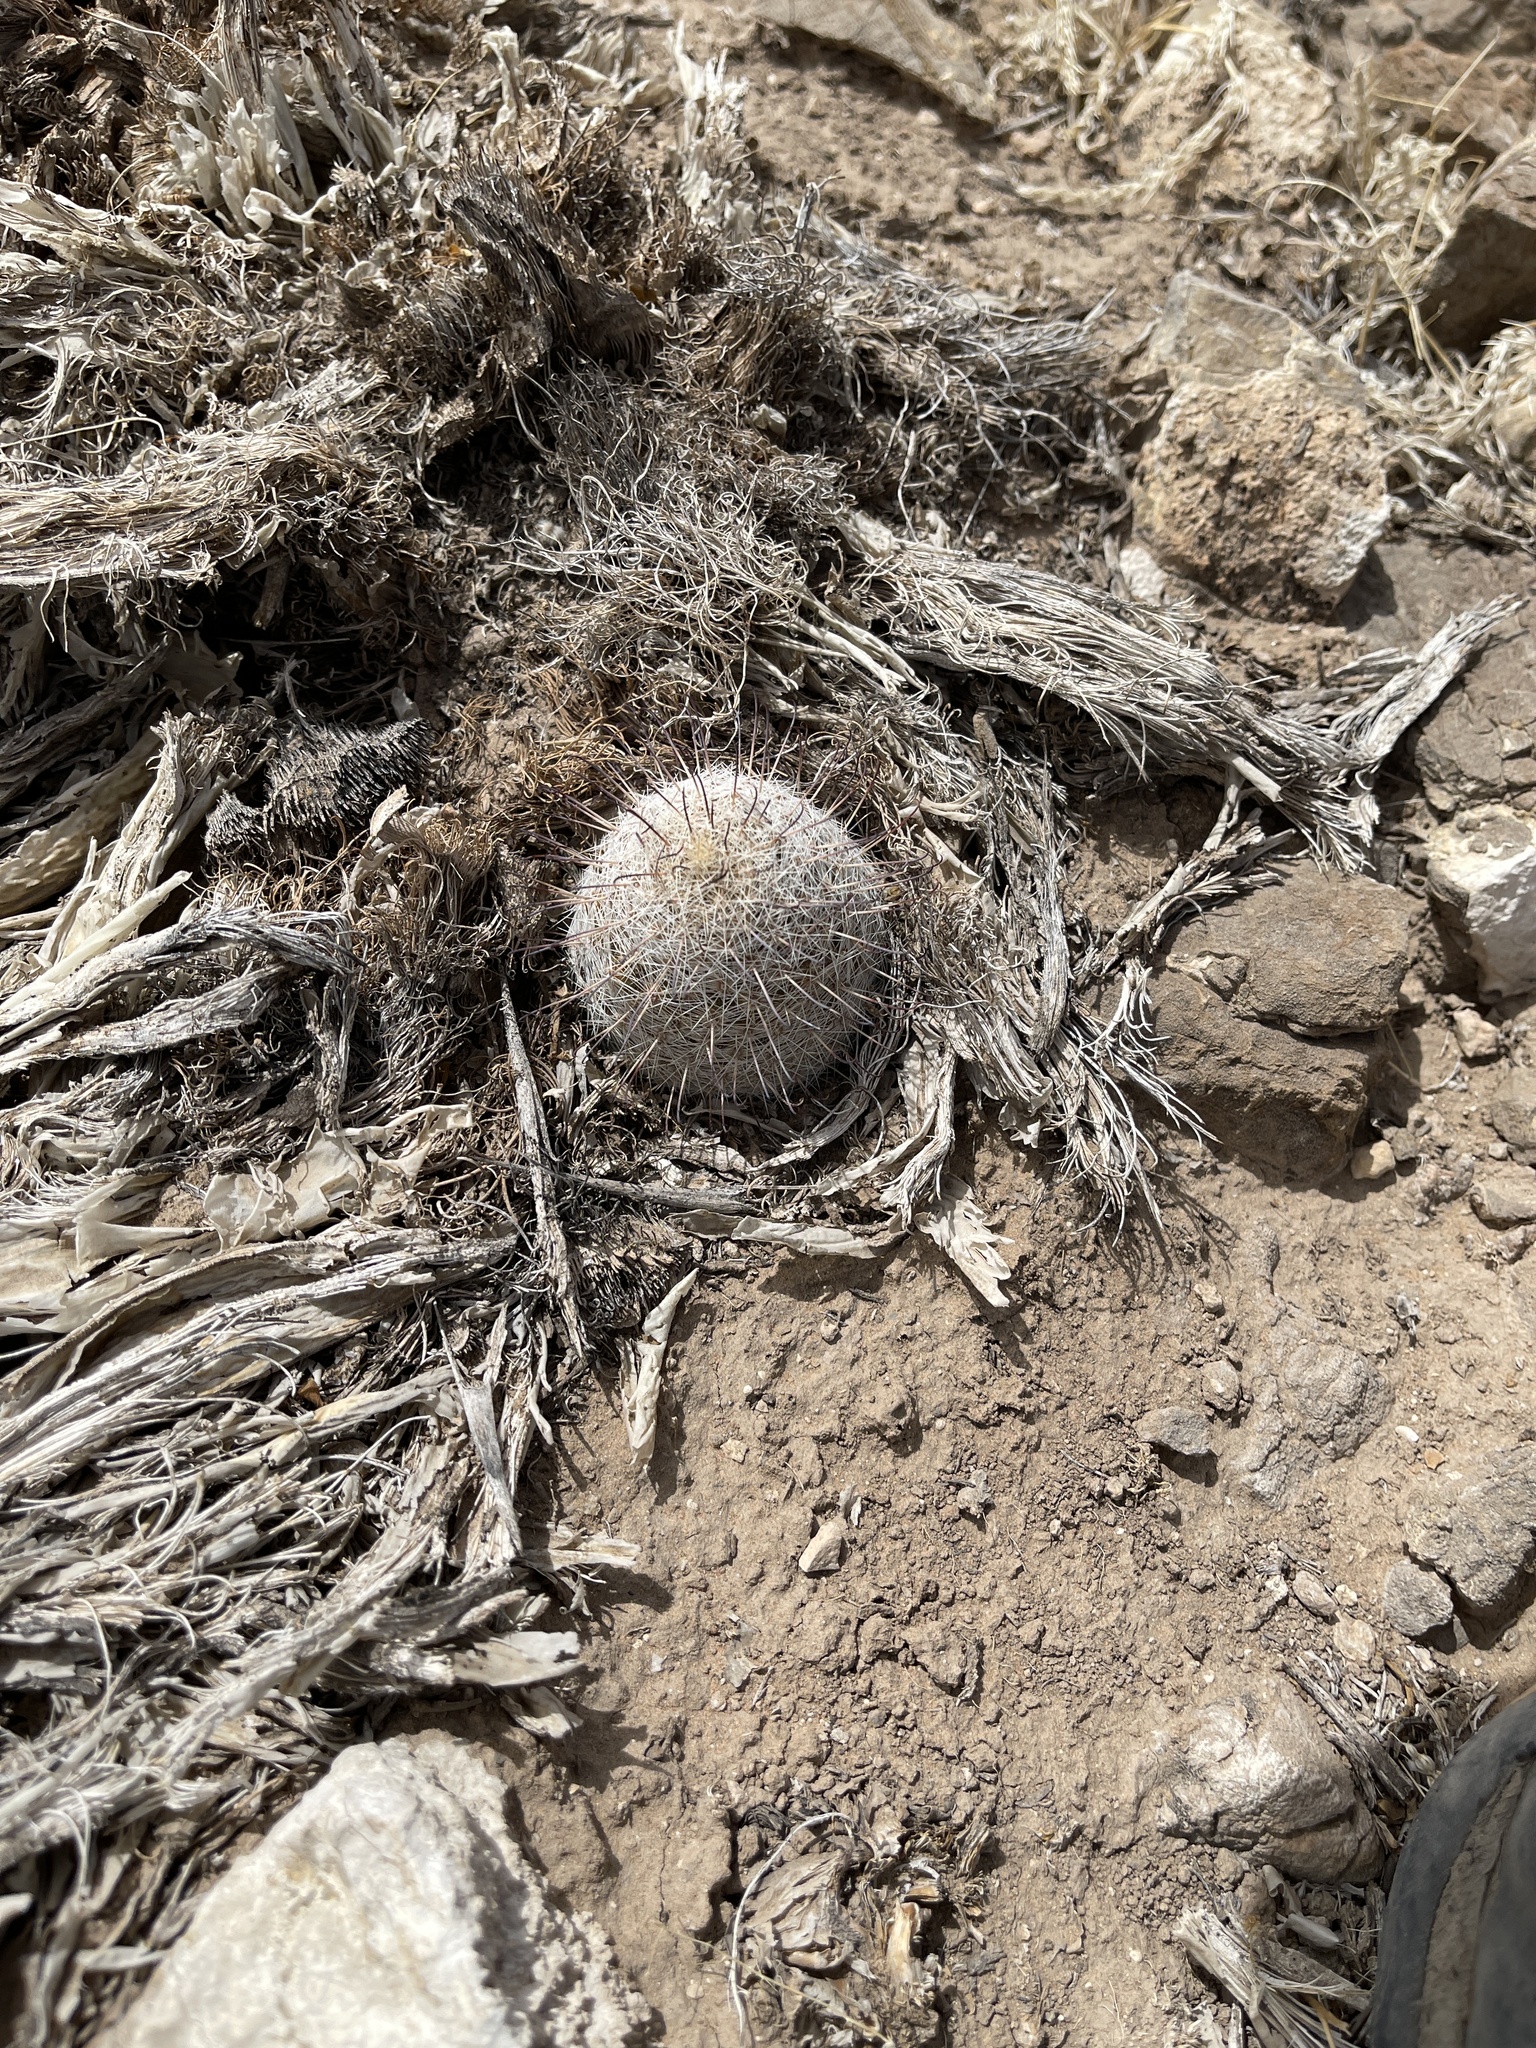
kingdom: Plantae
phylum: Tracheophyta
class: Magnoliopsida
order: Caryophyllales
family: Cactaceae
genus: Cochemiea
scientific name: Cochemiea grahamii
